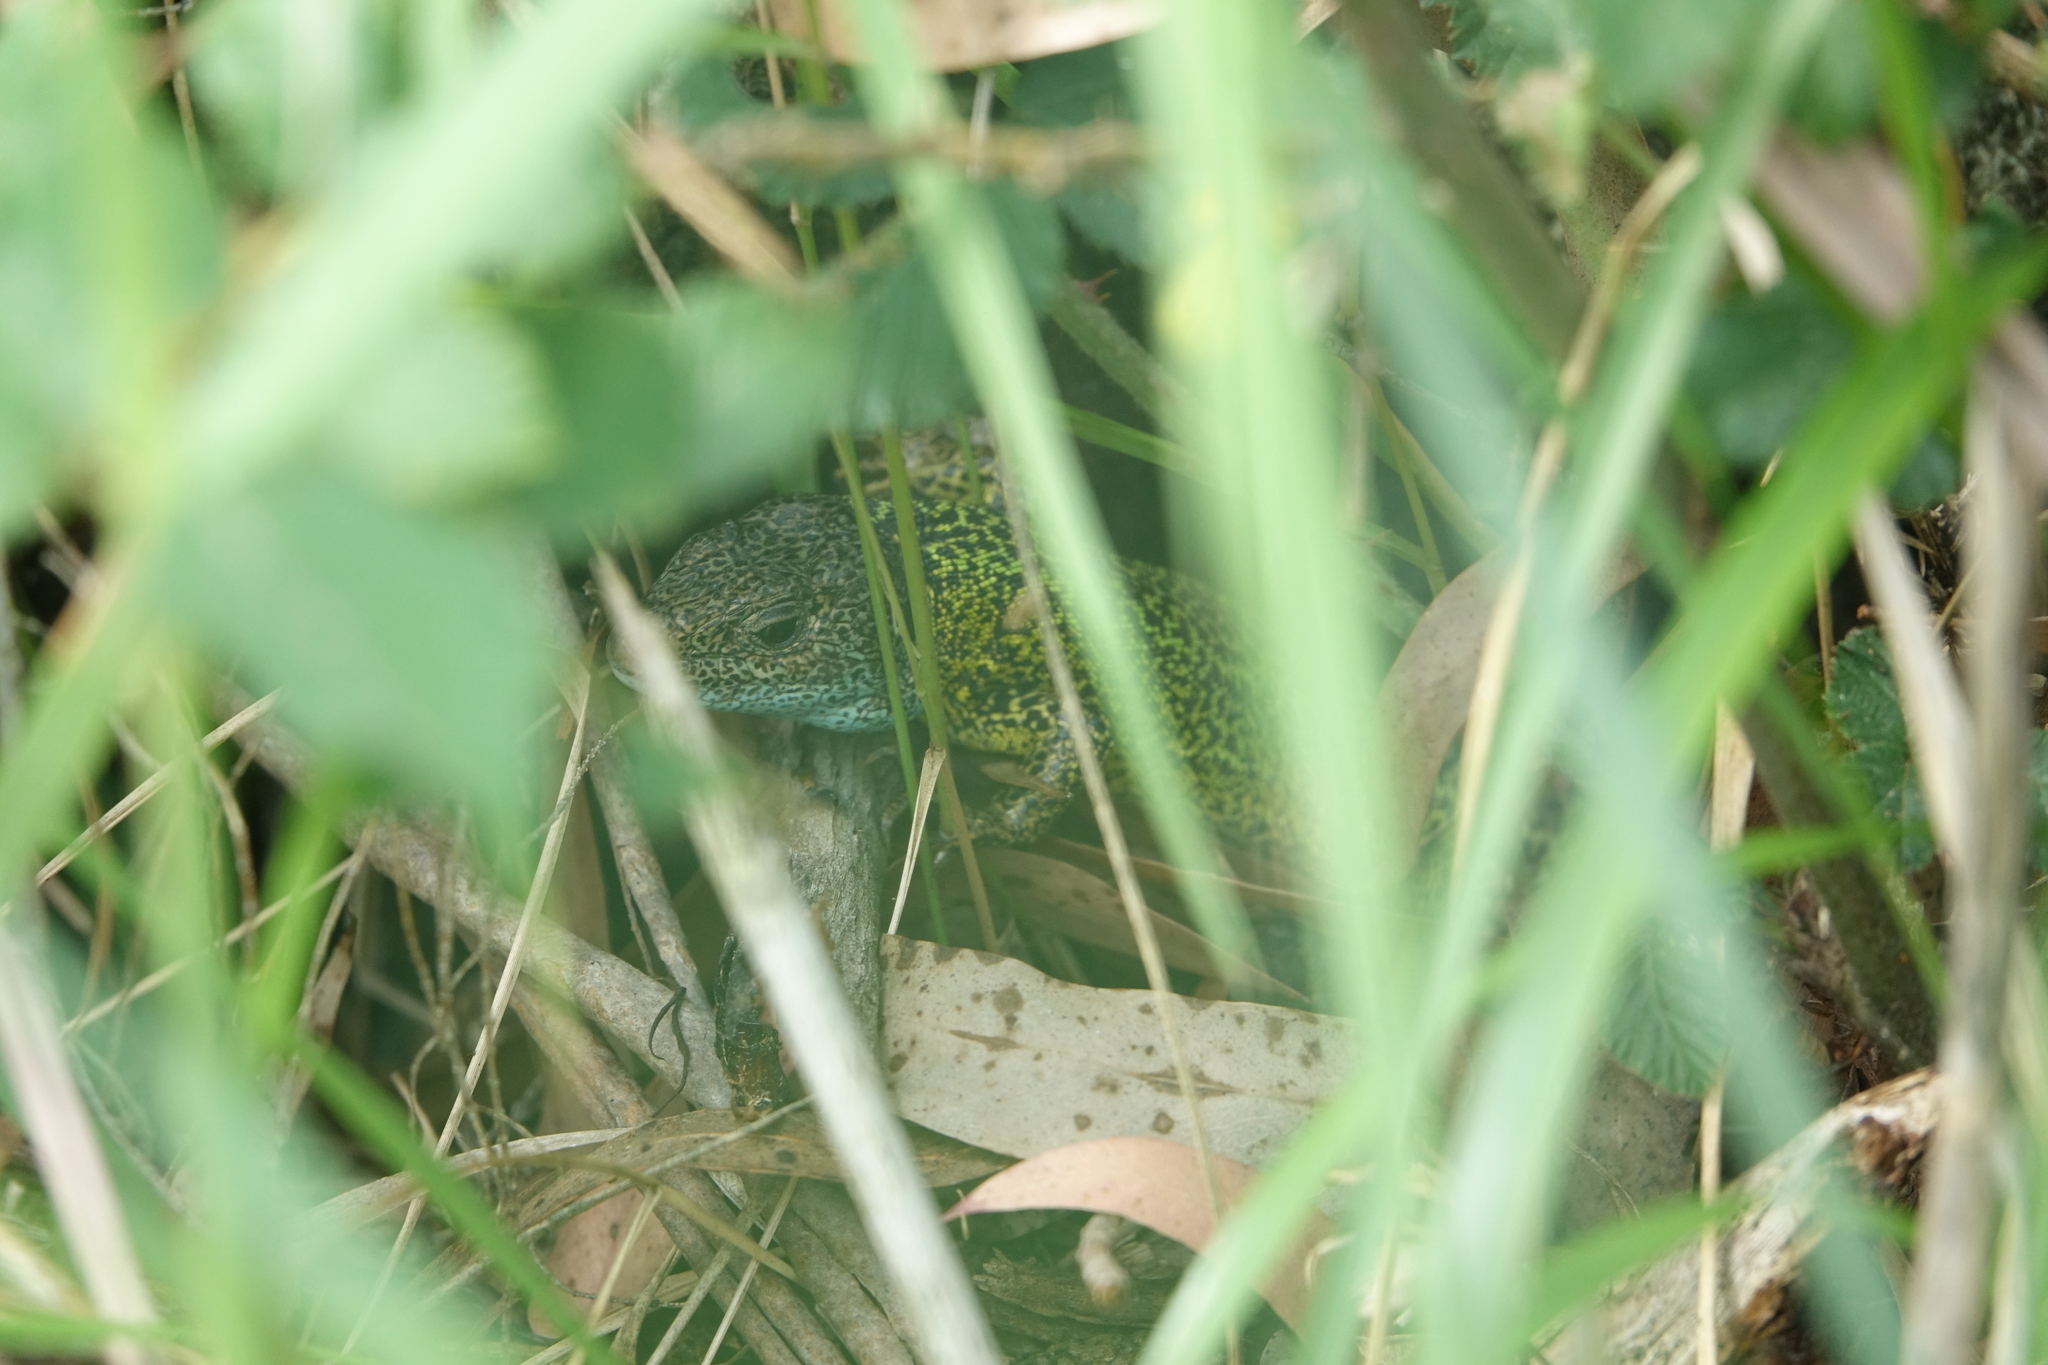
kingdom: Animalia
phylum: Chordata
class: Squamata
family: Lacertidae
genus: Lacerta
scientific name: Lacerta schreiberi
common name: Iberian emerald lizard
